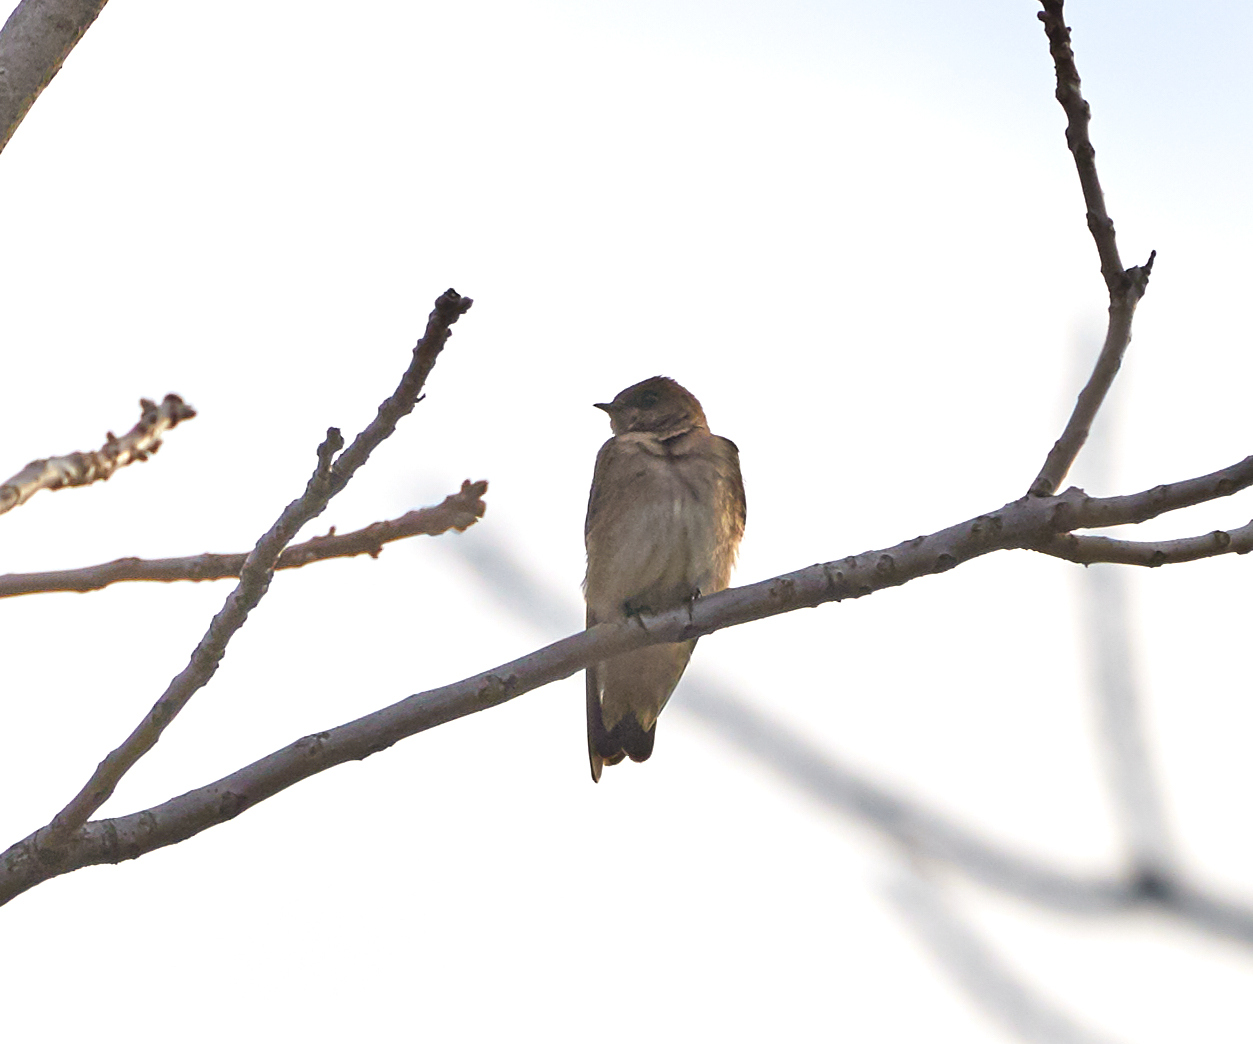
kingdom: Animalia
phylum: Chordata
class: Aves
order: Passeriformes
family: Hirundinidae
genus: Stelgidopteryx
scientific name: Stelgidopteryx serripennis
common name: Northern rough-winged swallow
